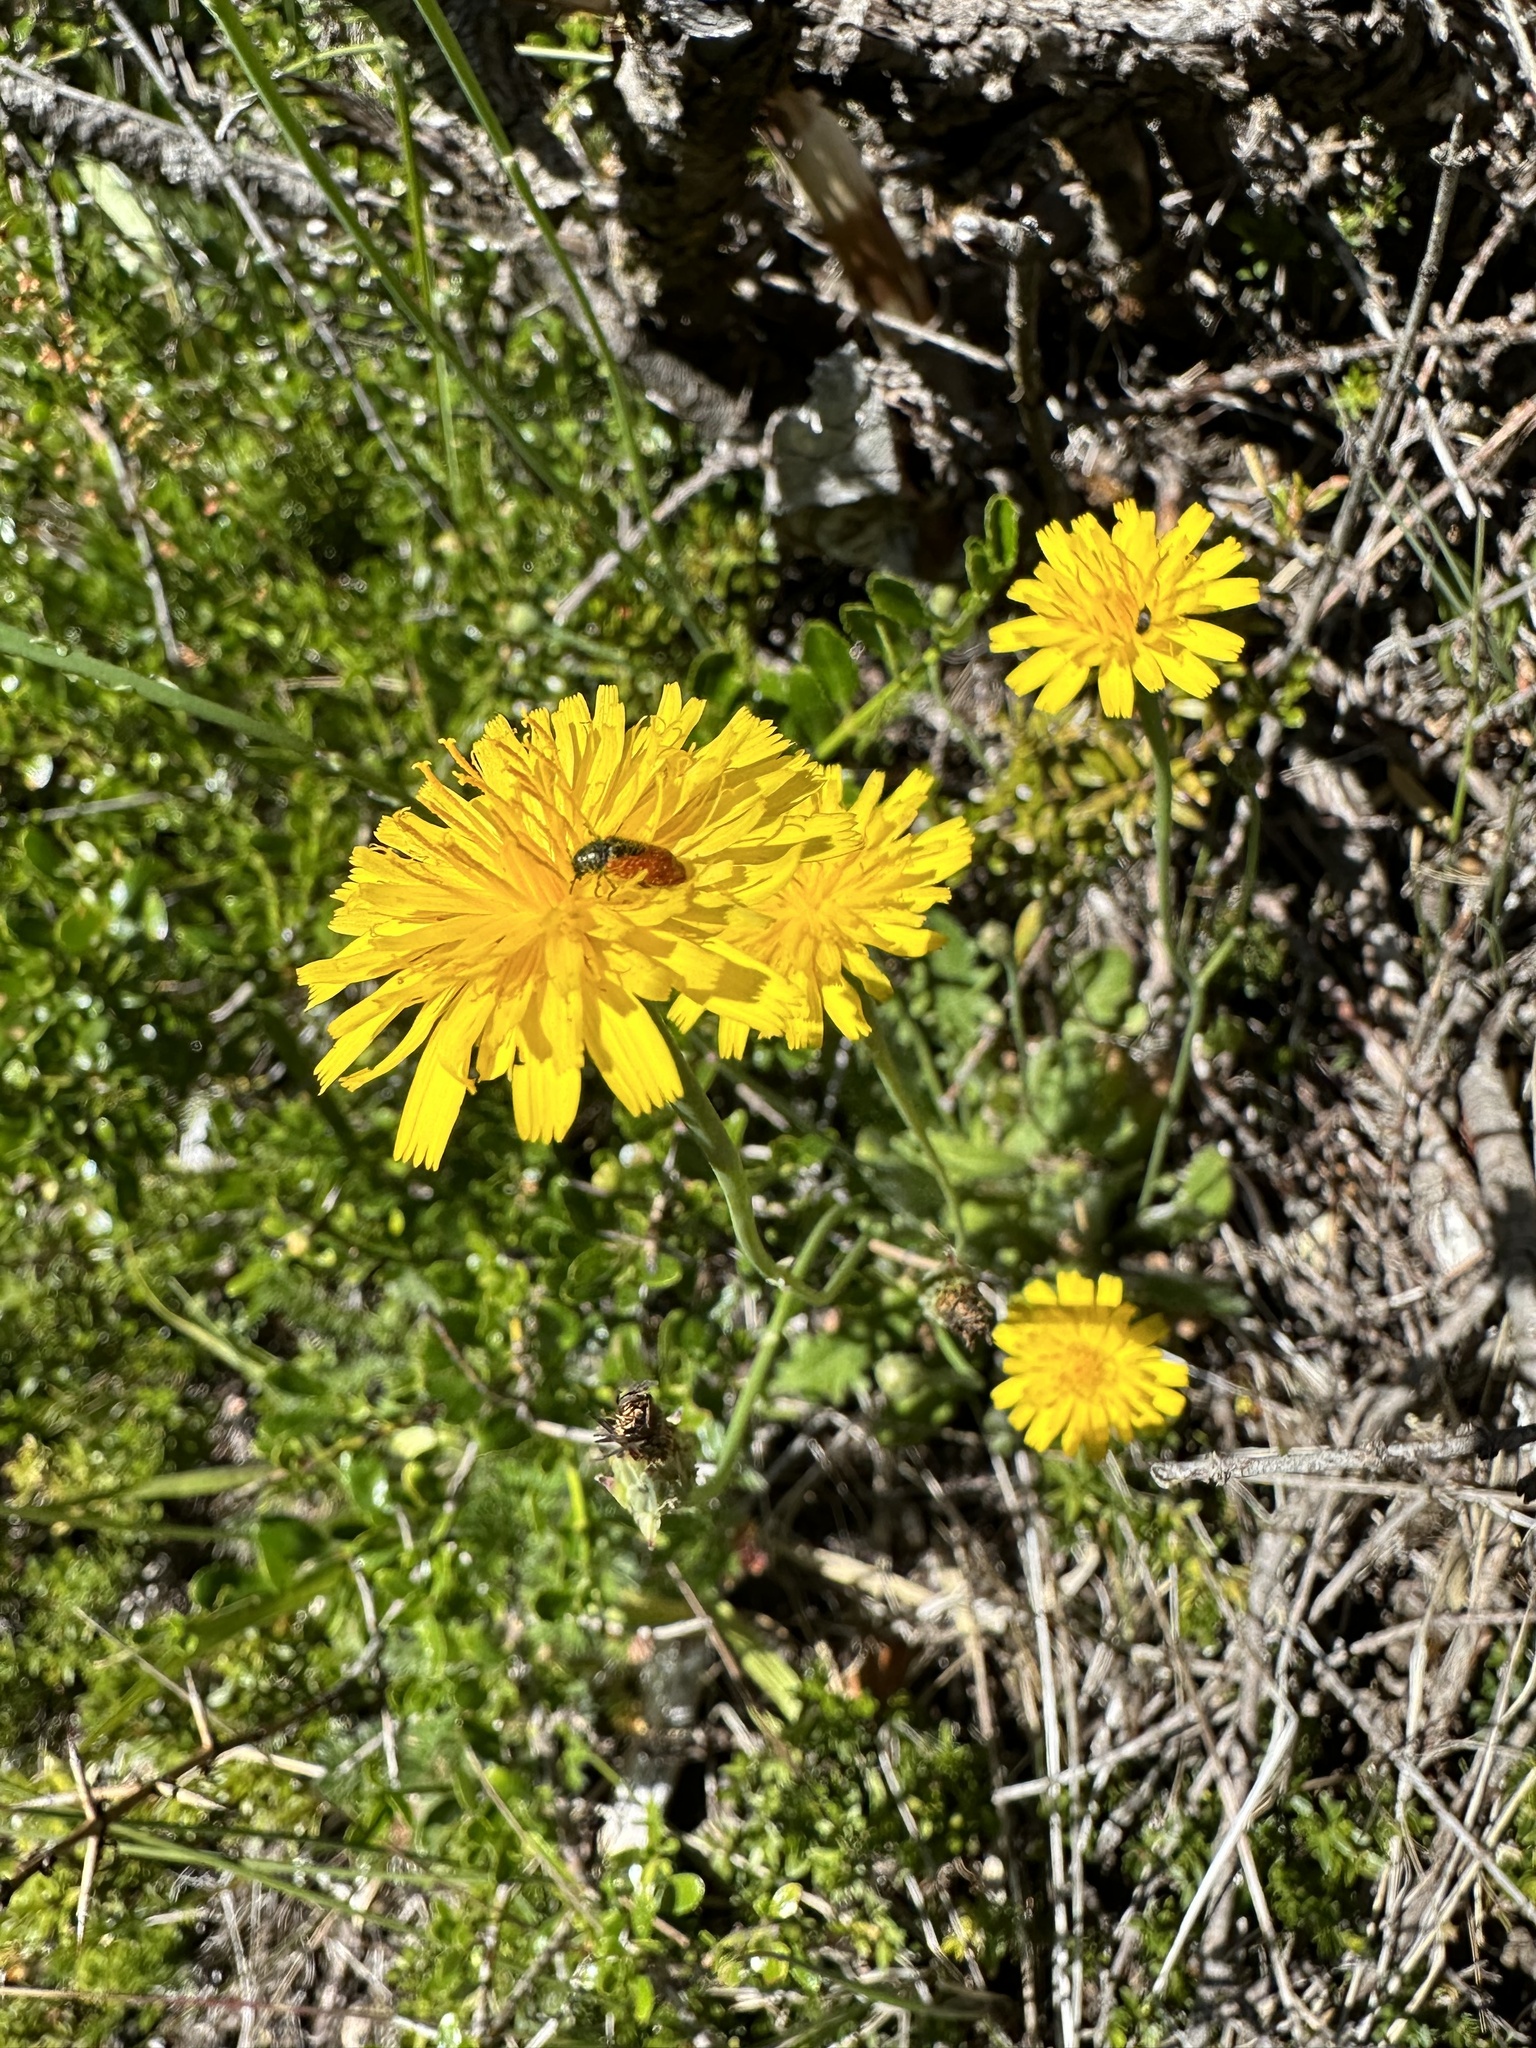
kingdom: Animalia
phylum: Arthropoda
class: Insecta
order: Coleoptera
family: Melyridae
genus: Arthrobrachus
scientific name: Arthrobrachus nigromaculatus
